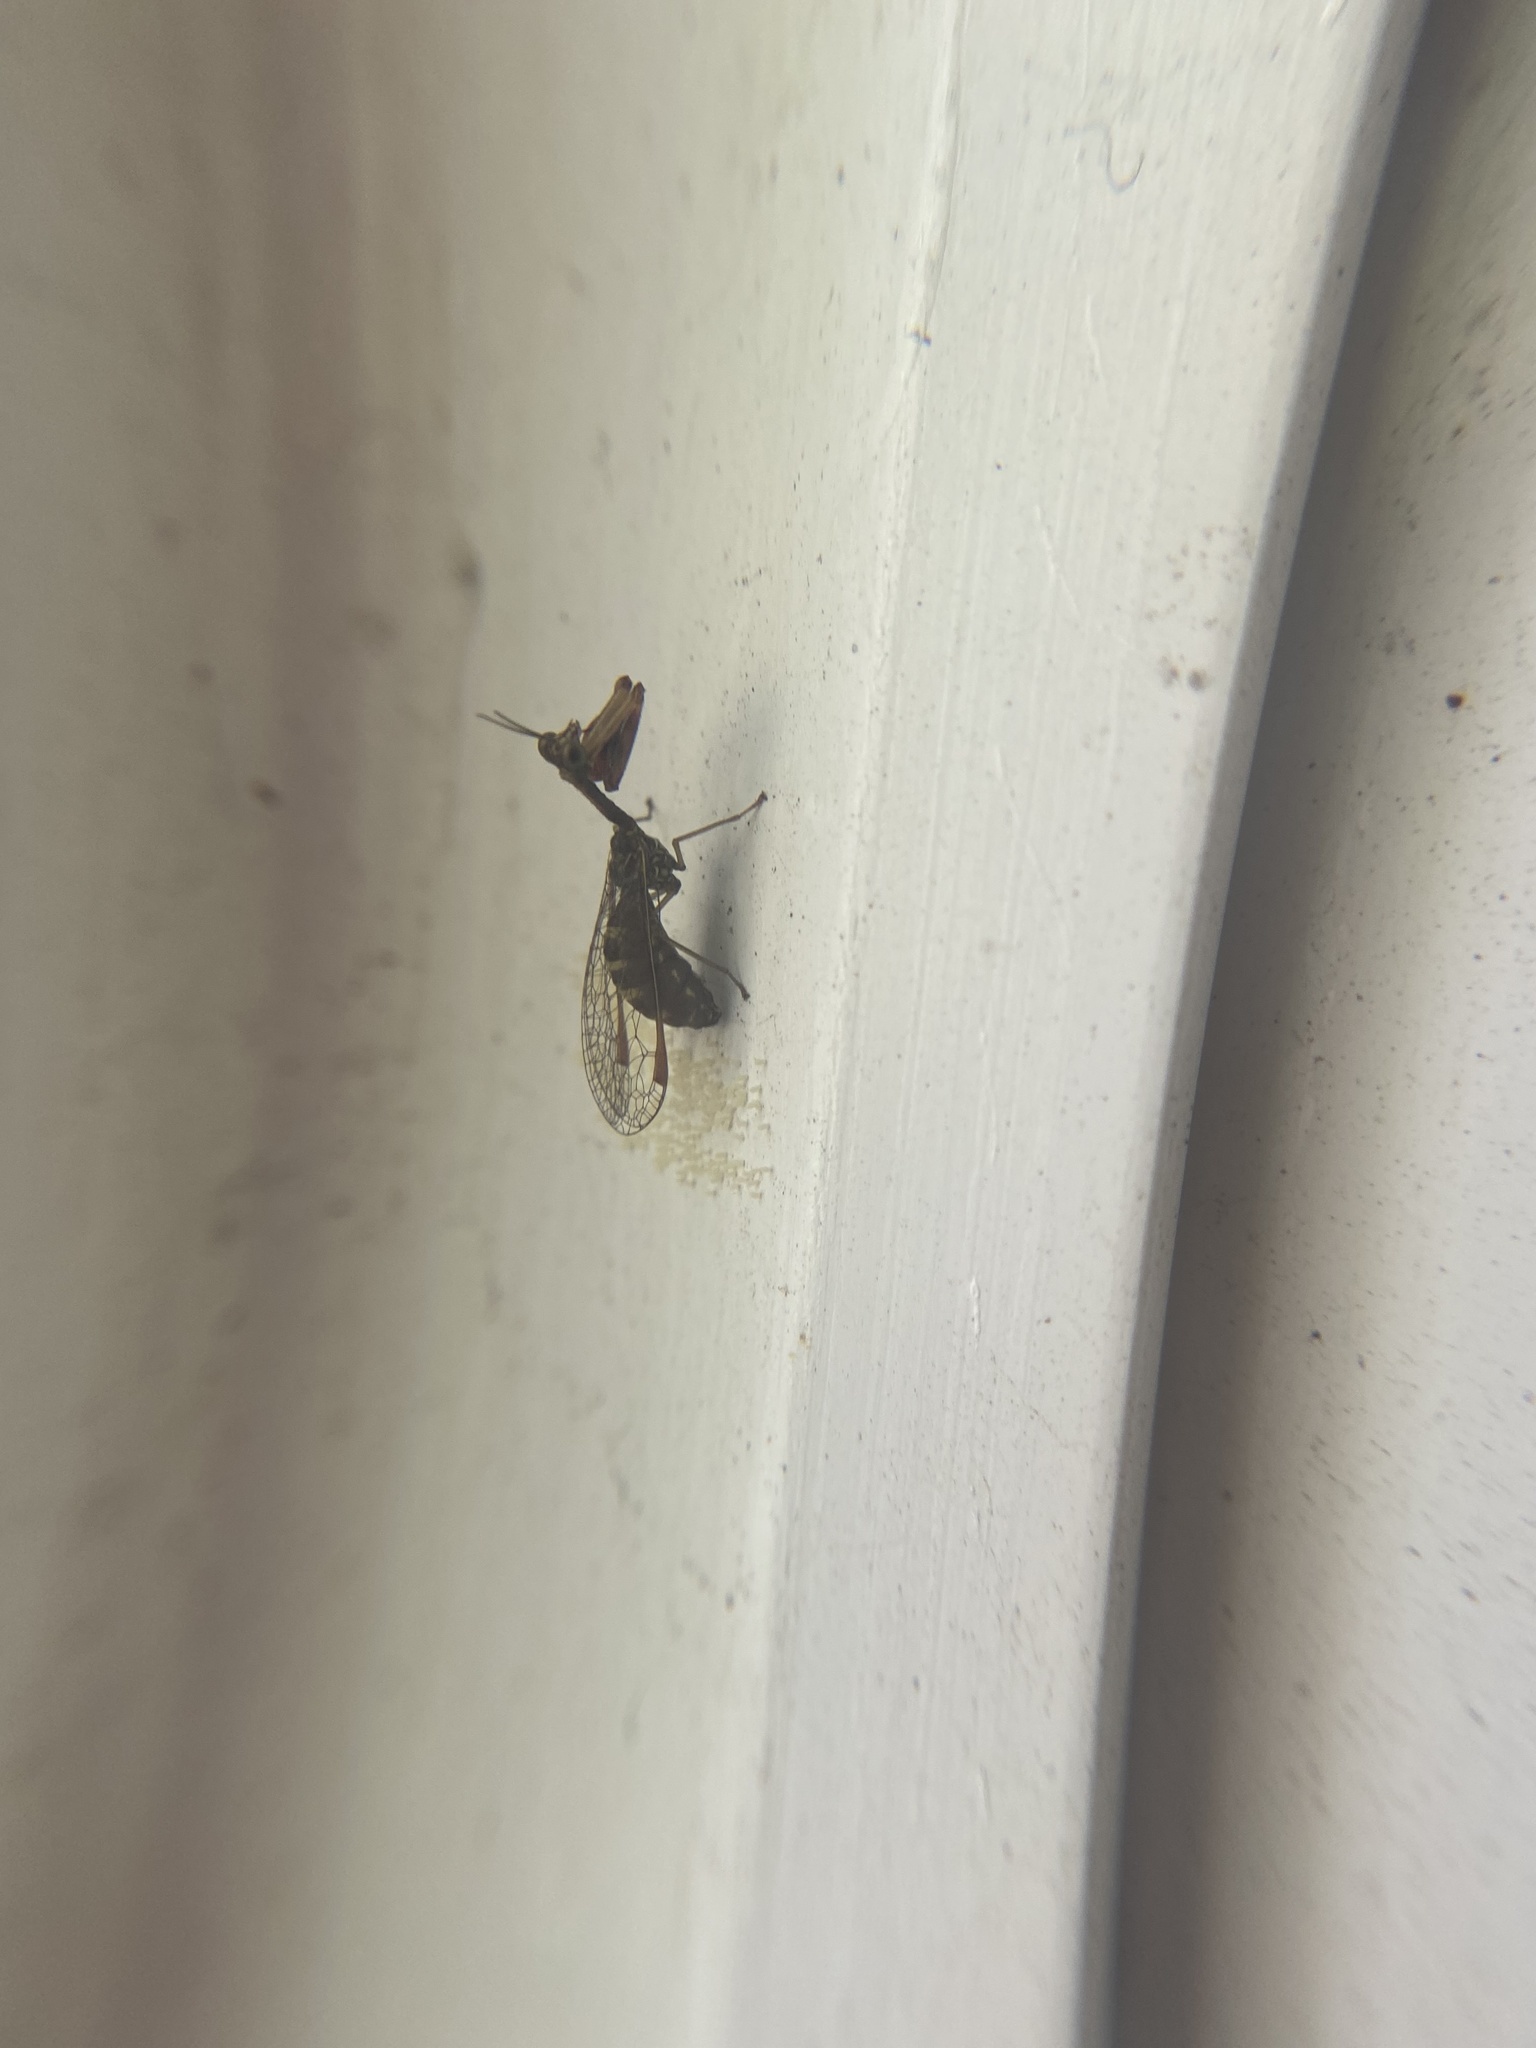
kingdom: Animalia
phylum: Arthropoda
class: Insecta
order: Neuroptera
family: Mantispidae
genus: Leptomantispa
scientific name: Leptomantispa pulchella
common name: Stevens's mantidfly
